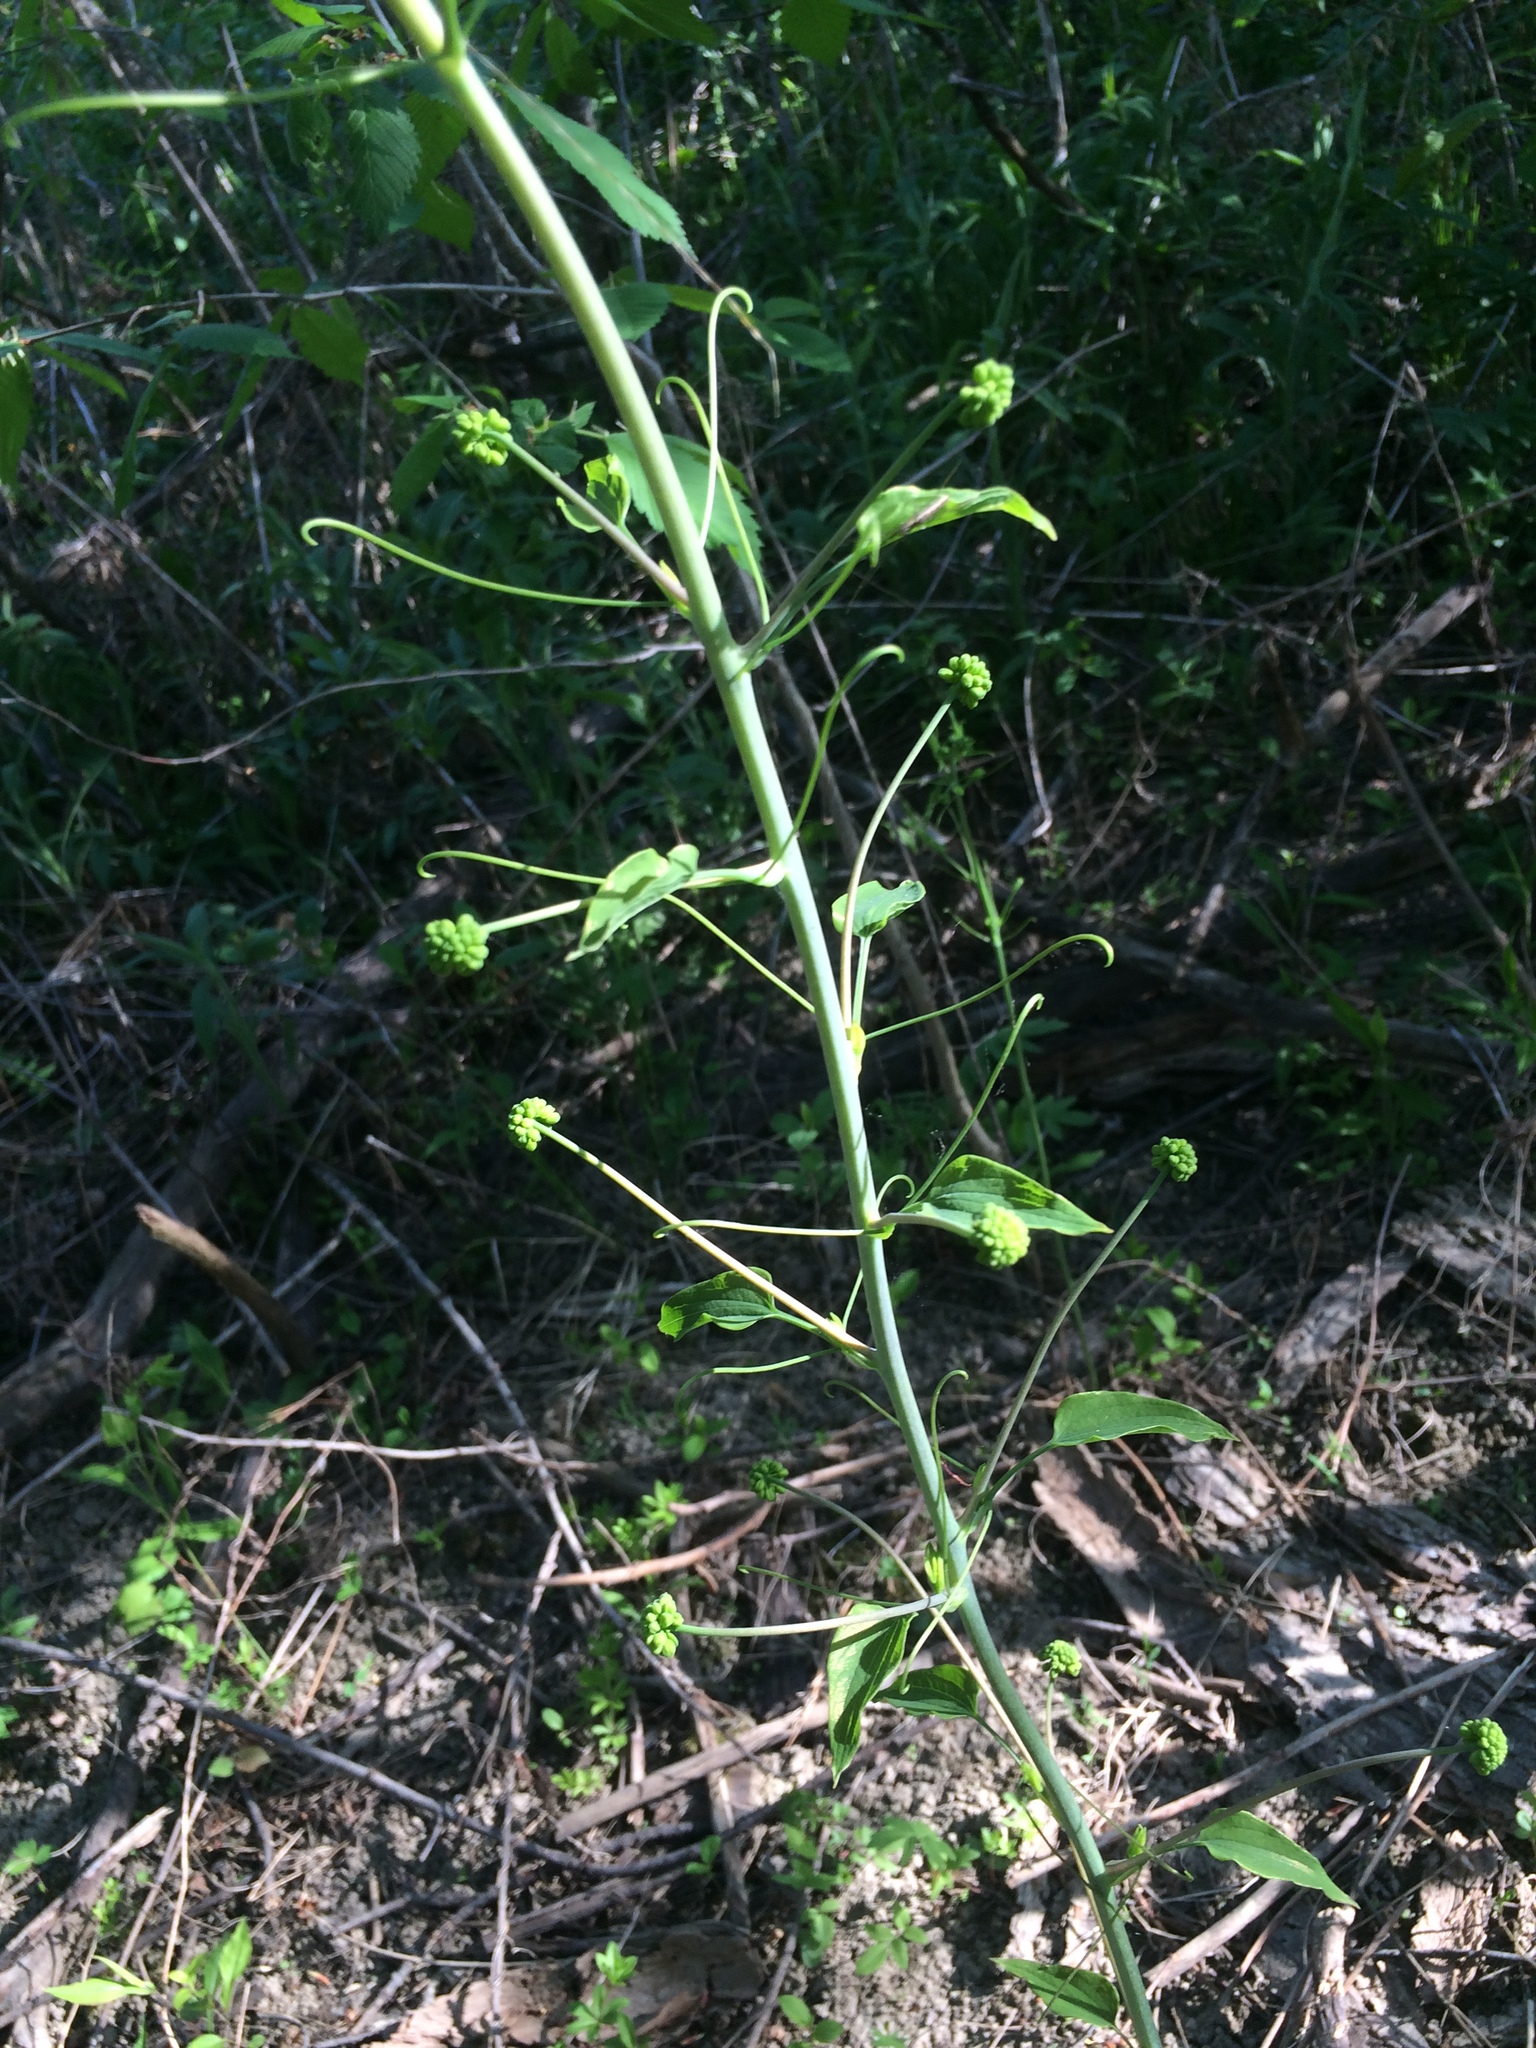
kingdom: Plantae
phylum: Tracheophyta
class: Liliopsida
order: Liliales
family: Smilacaceae
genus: Smilax
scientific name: Smilax herbacea
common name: Jacob's-ladder
